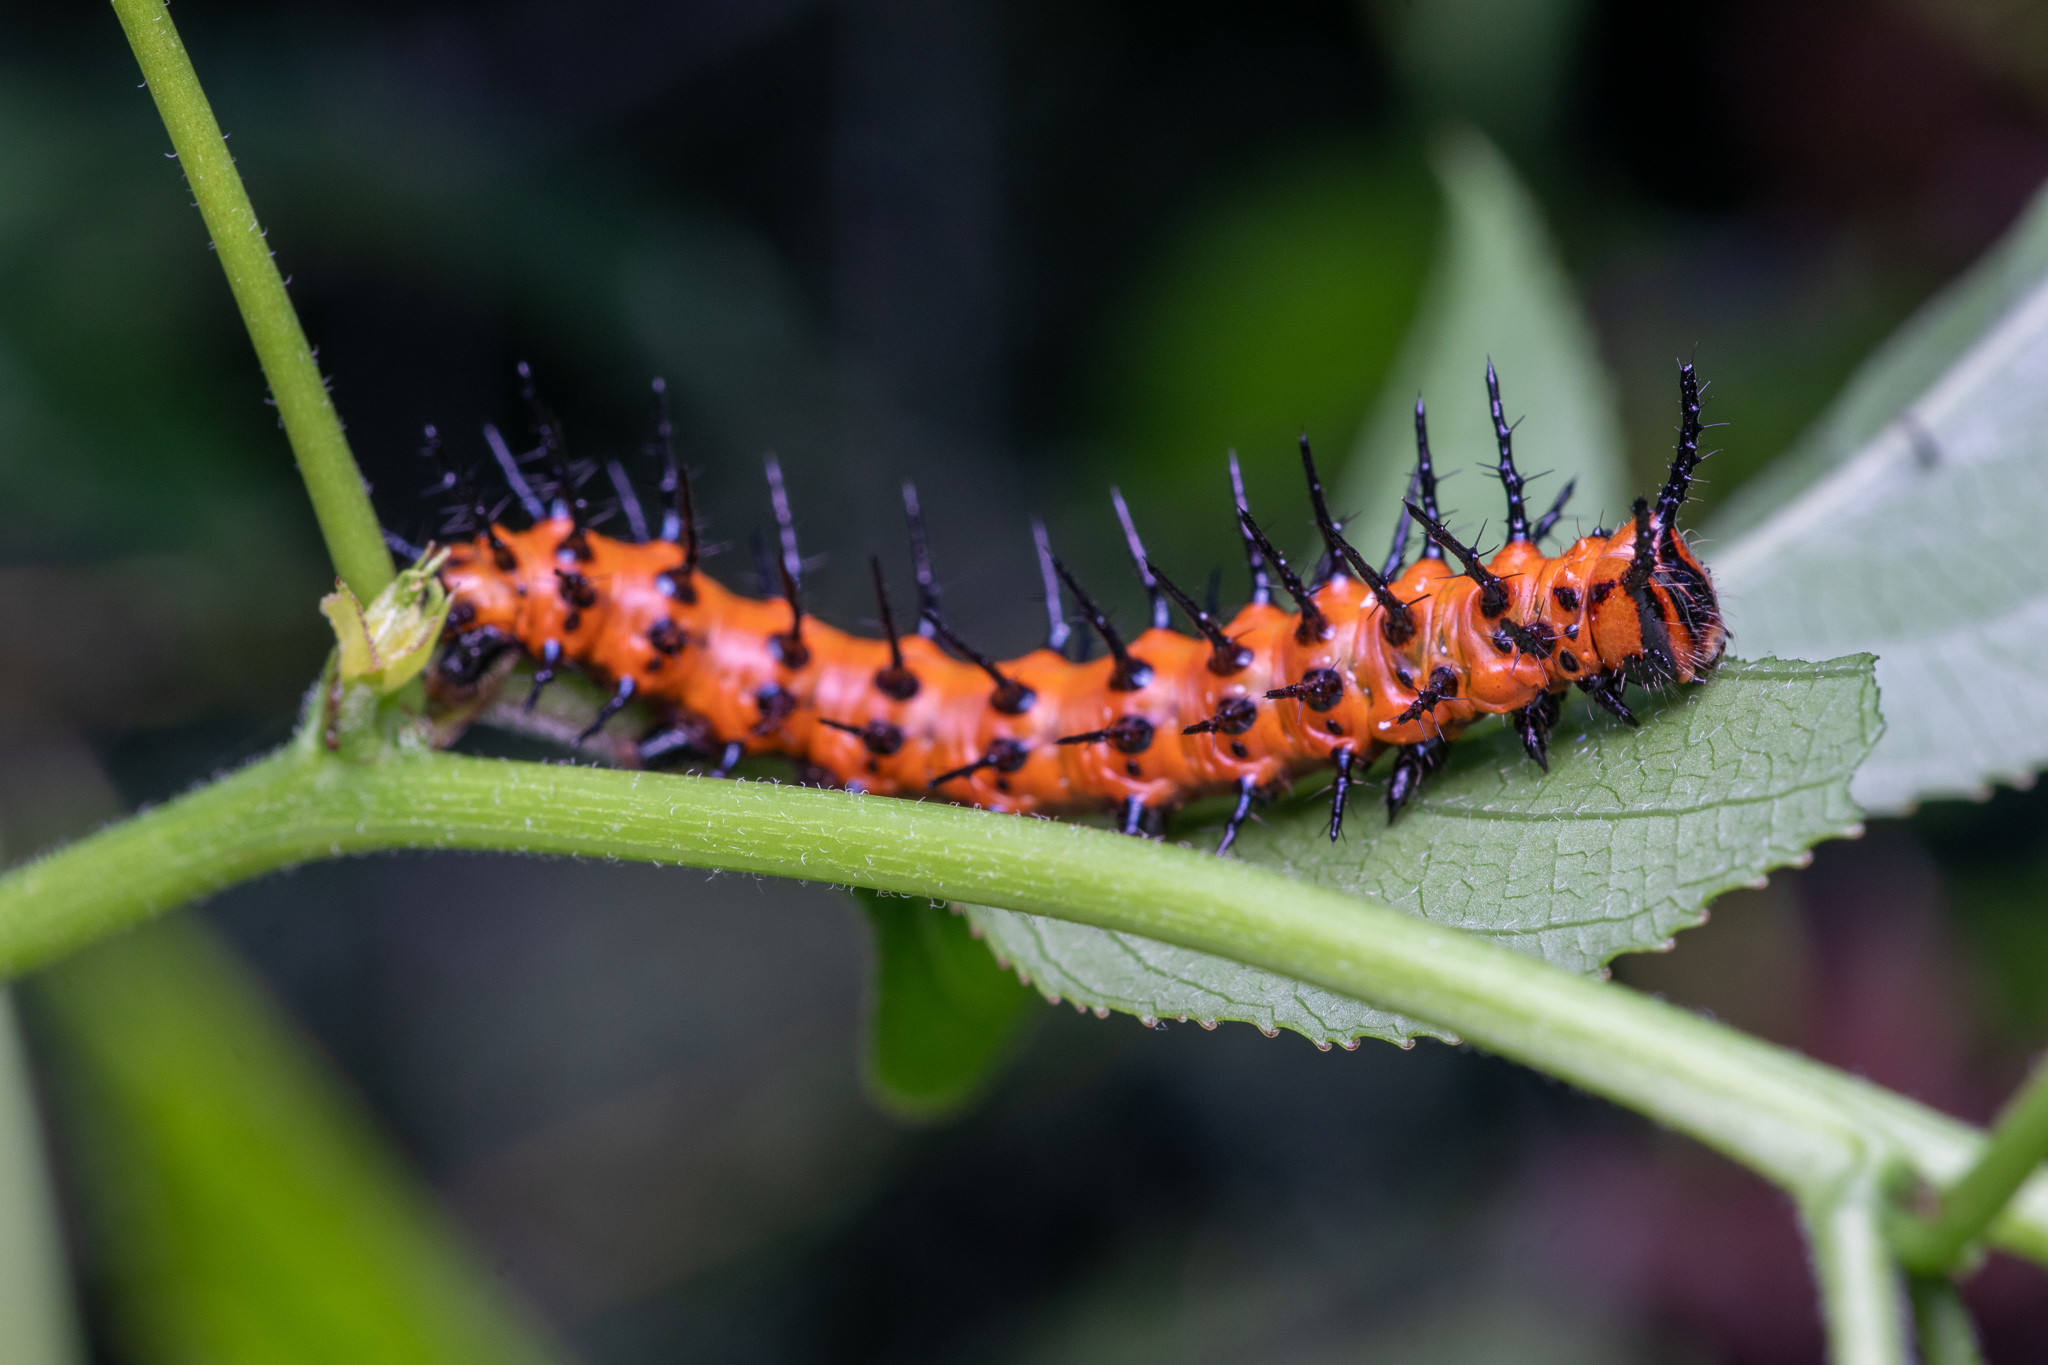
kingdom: Animalia
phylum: Arthropoda
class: Insecta
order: Lepidoptera
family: Nymphalidae
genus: Dione
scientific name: Dione vanillae
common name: Gulf fritillary
